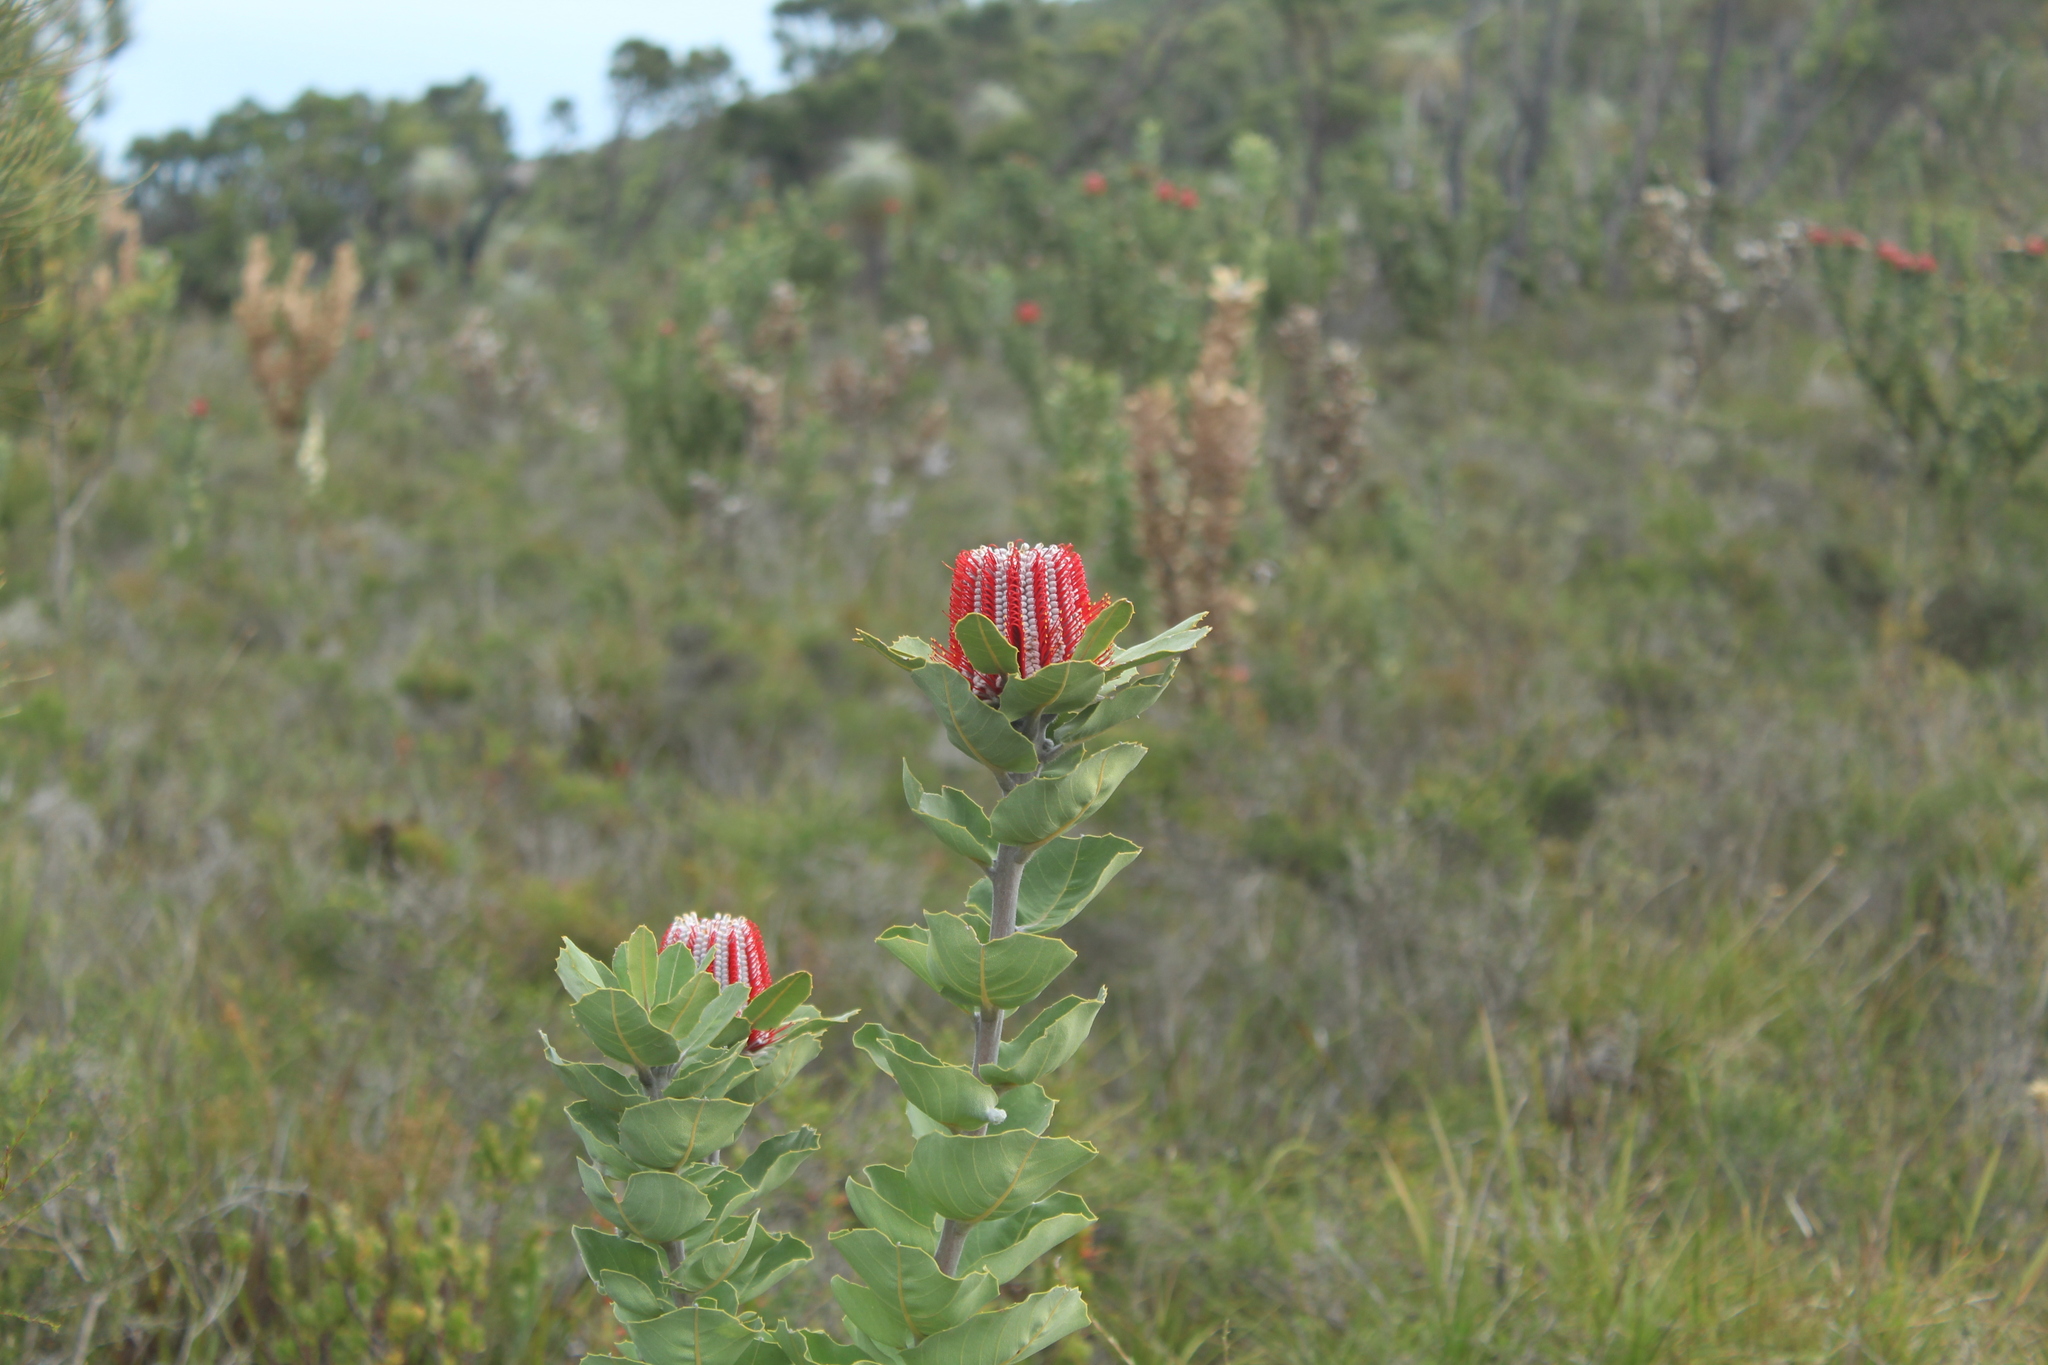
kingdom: Plantae
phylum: Tracheophyta
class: Magnoliopsida
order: Proteales
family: Proteaceae
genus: Banksia
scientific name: Banksia coccinea
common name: Scarlet banksia
